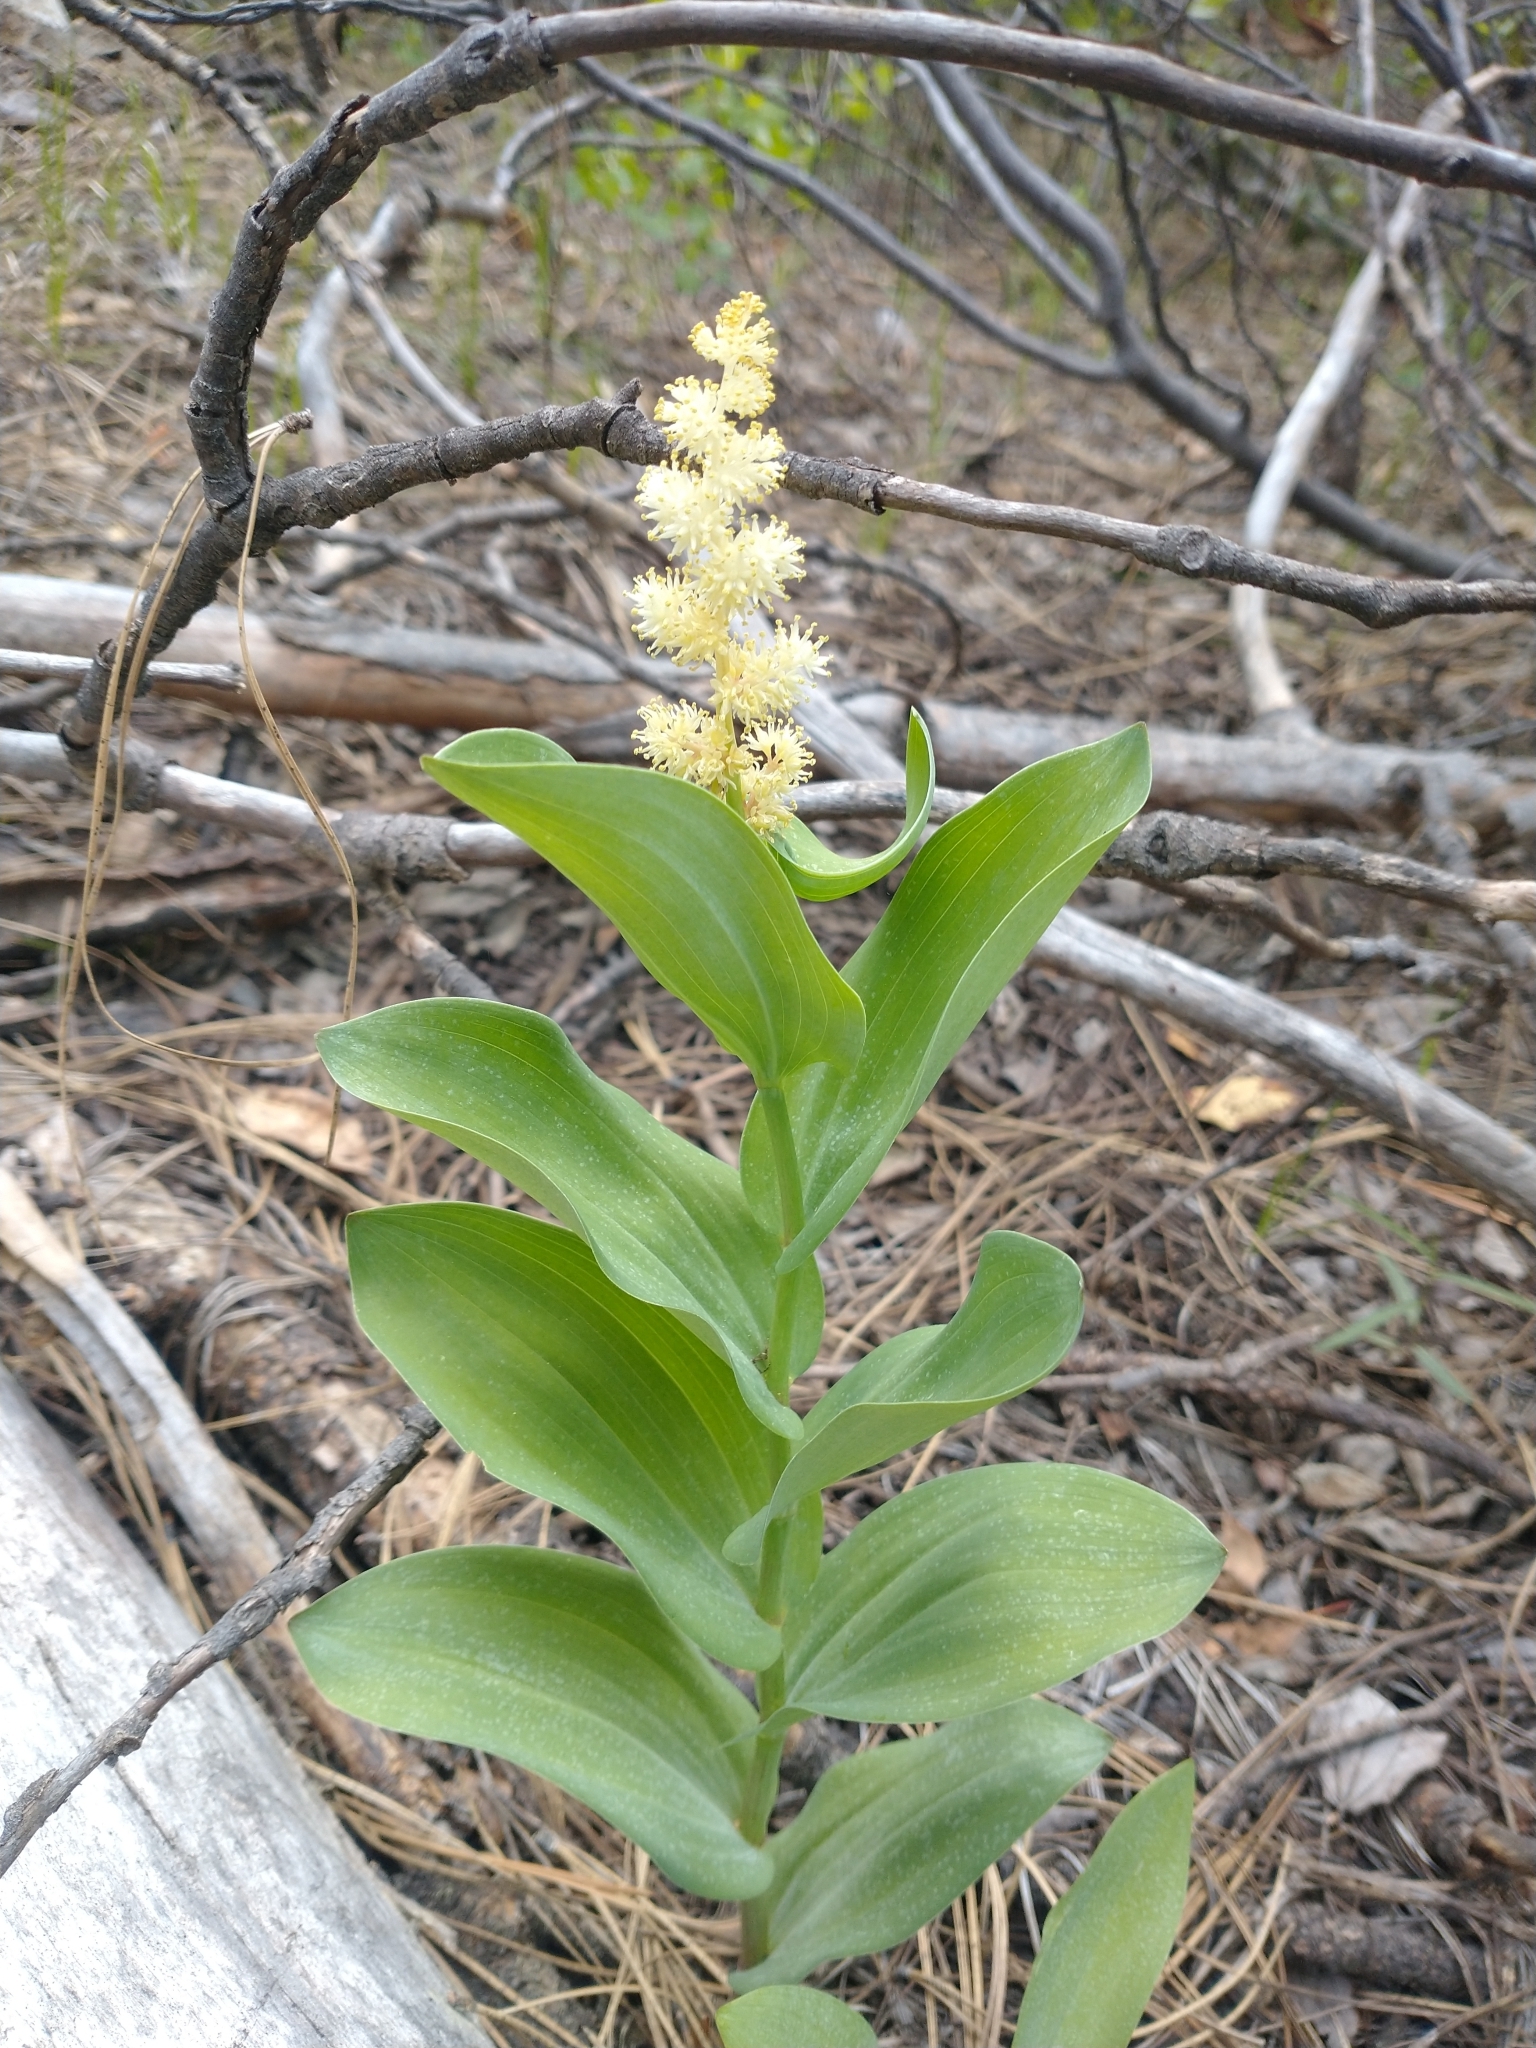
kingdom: Plantae
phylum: Tracheophyta
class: Liliopsida
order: Asparagales
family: Asparagaceae
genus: Maianthemum
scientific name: Maianthemum racemosum
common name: False spikenard
